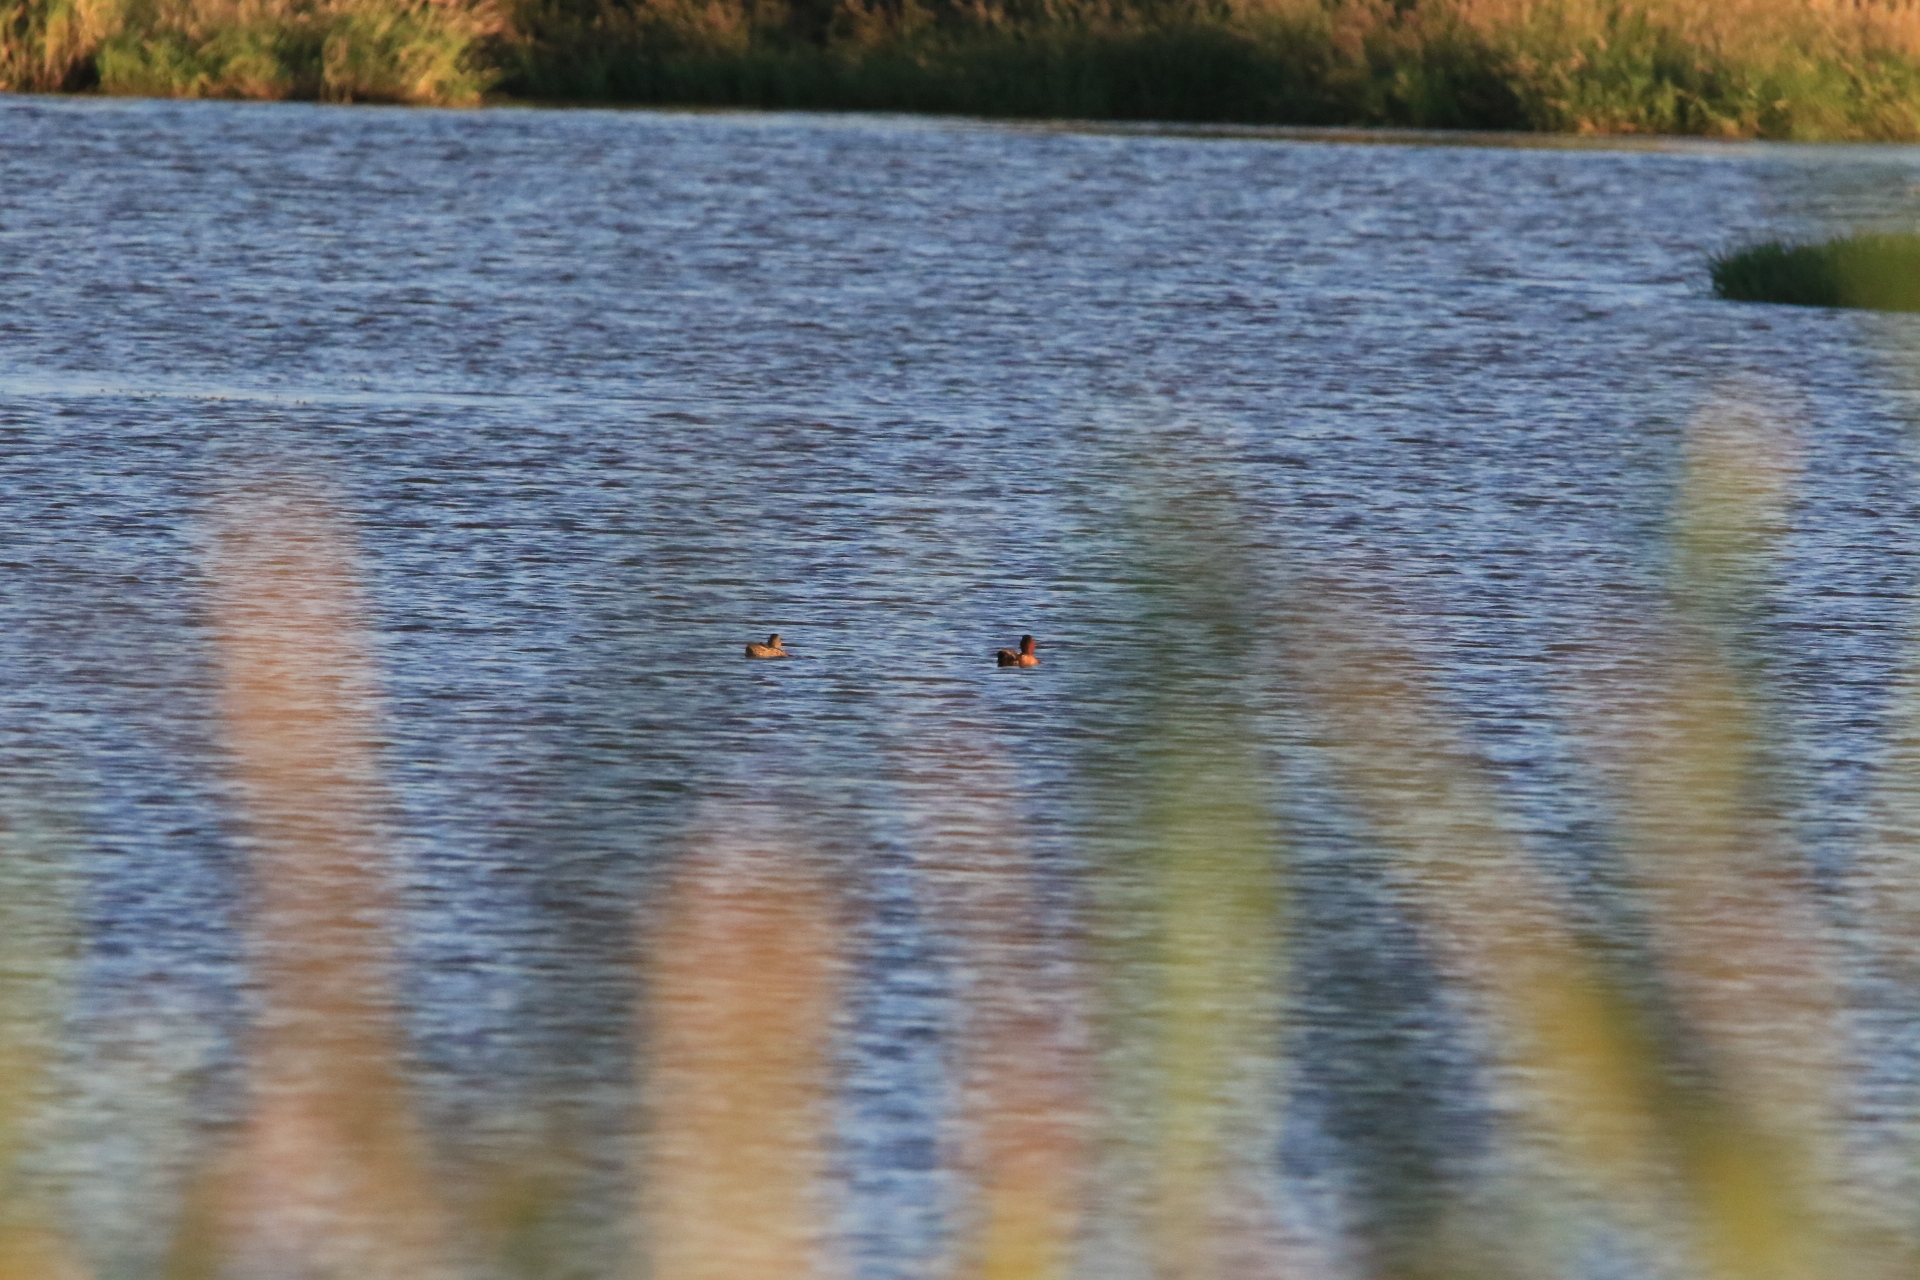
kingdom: Animalia
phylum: Chordata
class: Aves
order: Anseriformes
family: Anatidae
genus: Spatula
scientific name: Spatula cyanoptera
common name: Cinnamon teal
